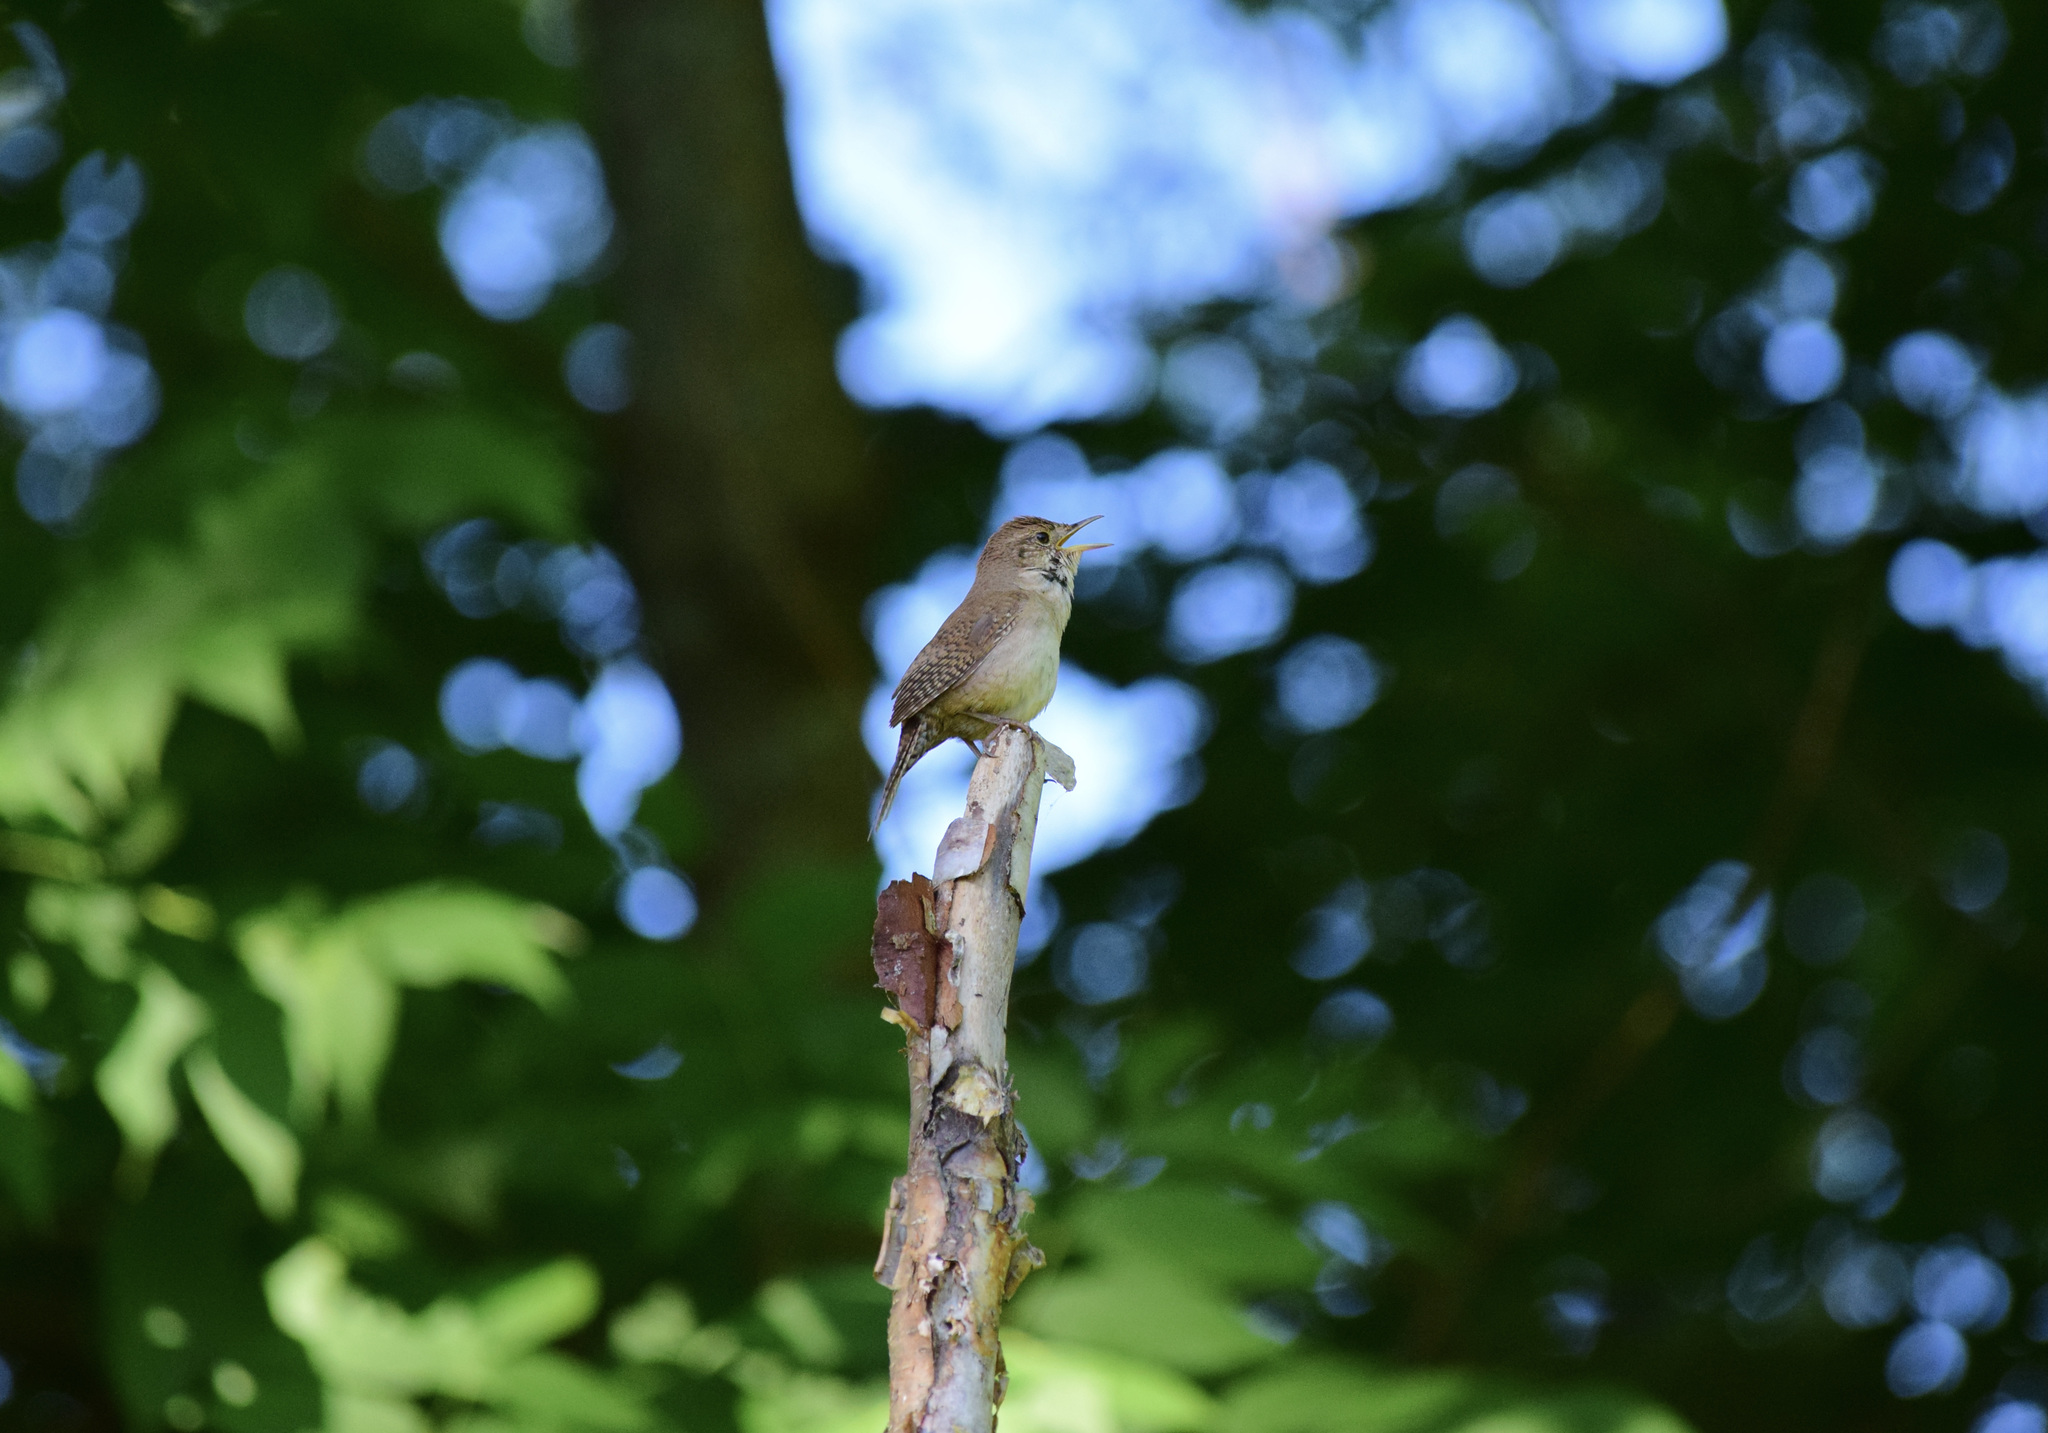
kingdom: Animalia
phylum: Chordata
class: Aves
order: Passeriformes
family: Troglodytidae
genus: Troglodytes
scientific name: Troglodytes aedon
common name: House wren
